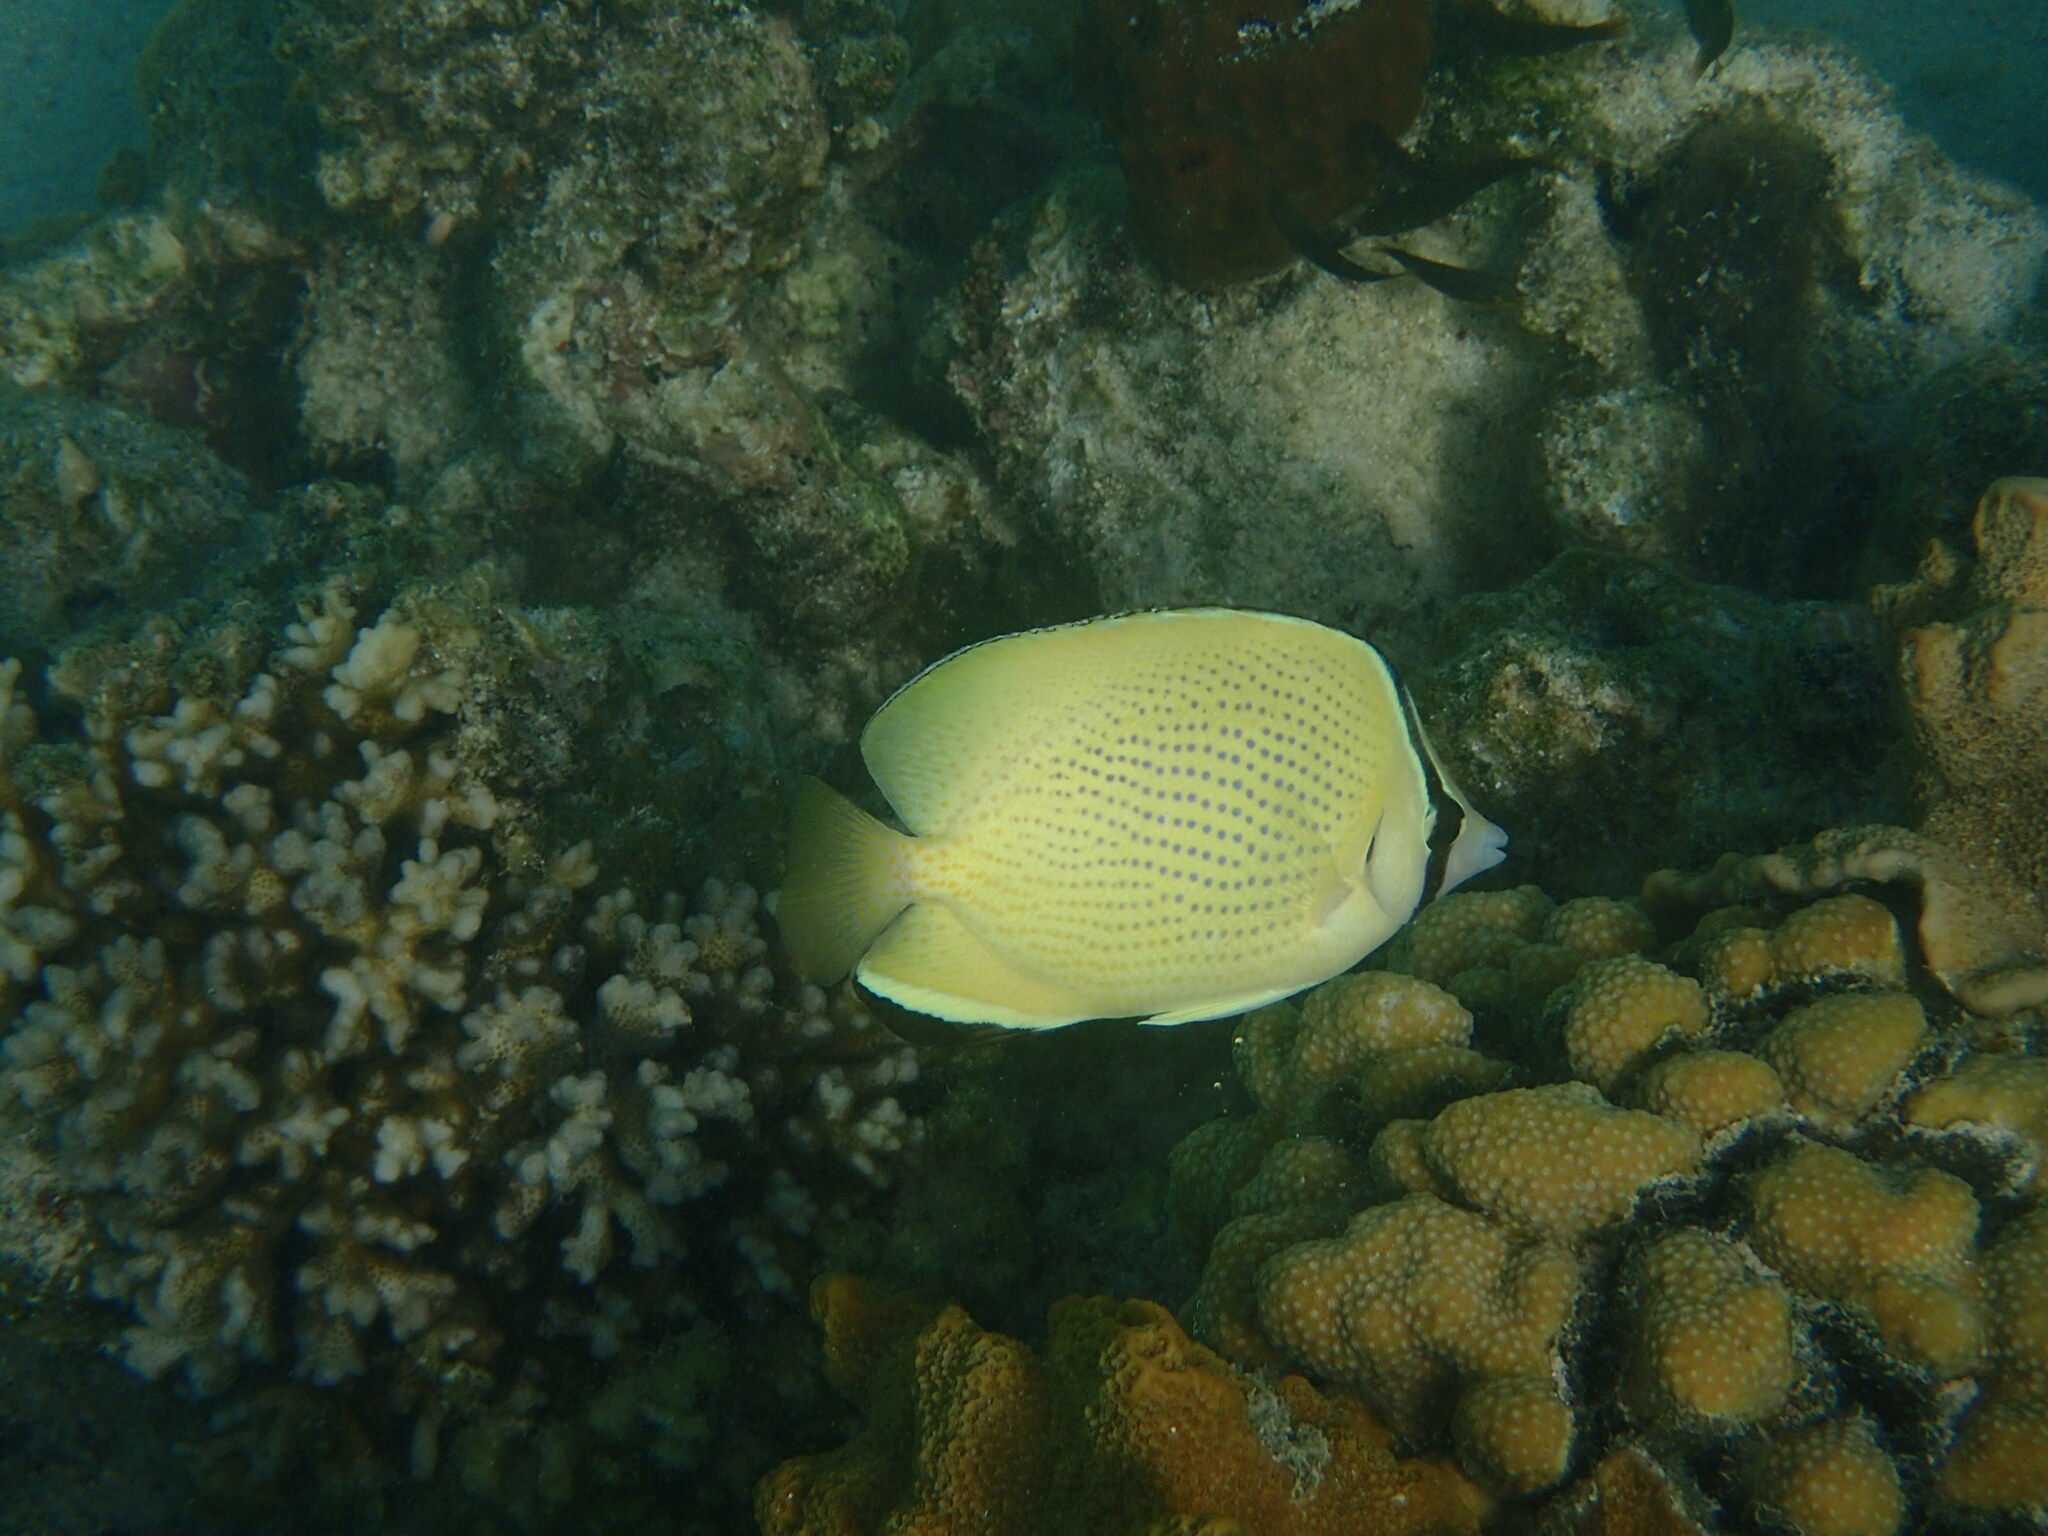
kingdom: Animalia
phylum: Chordata
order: Perciformes
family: Chaetodontidae
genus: Chaetodon
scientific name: Chaetodon citrinellus
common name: Speckled butterflyfish
